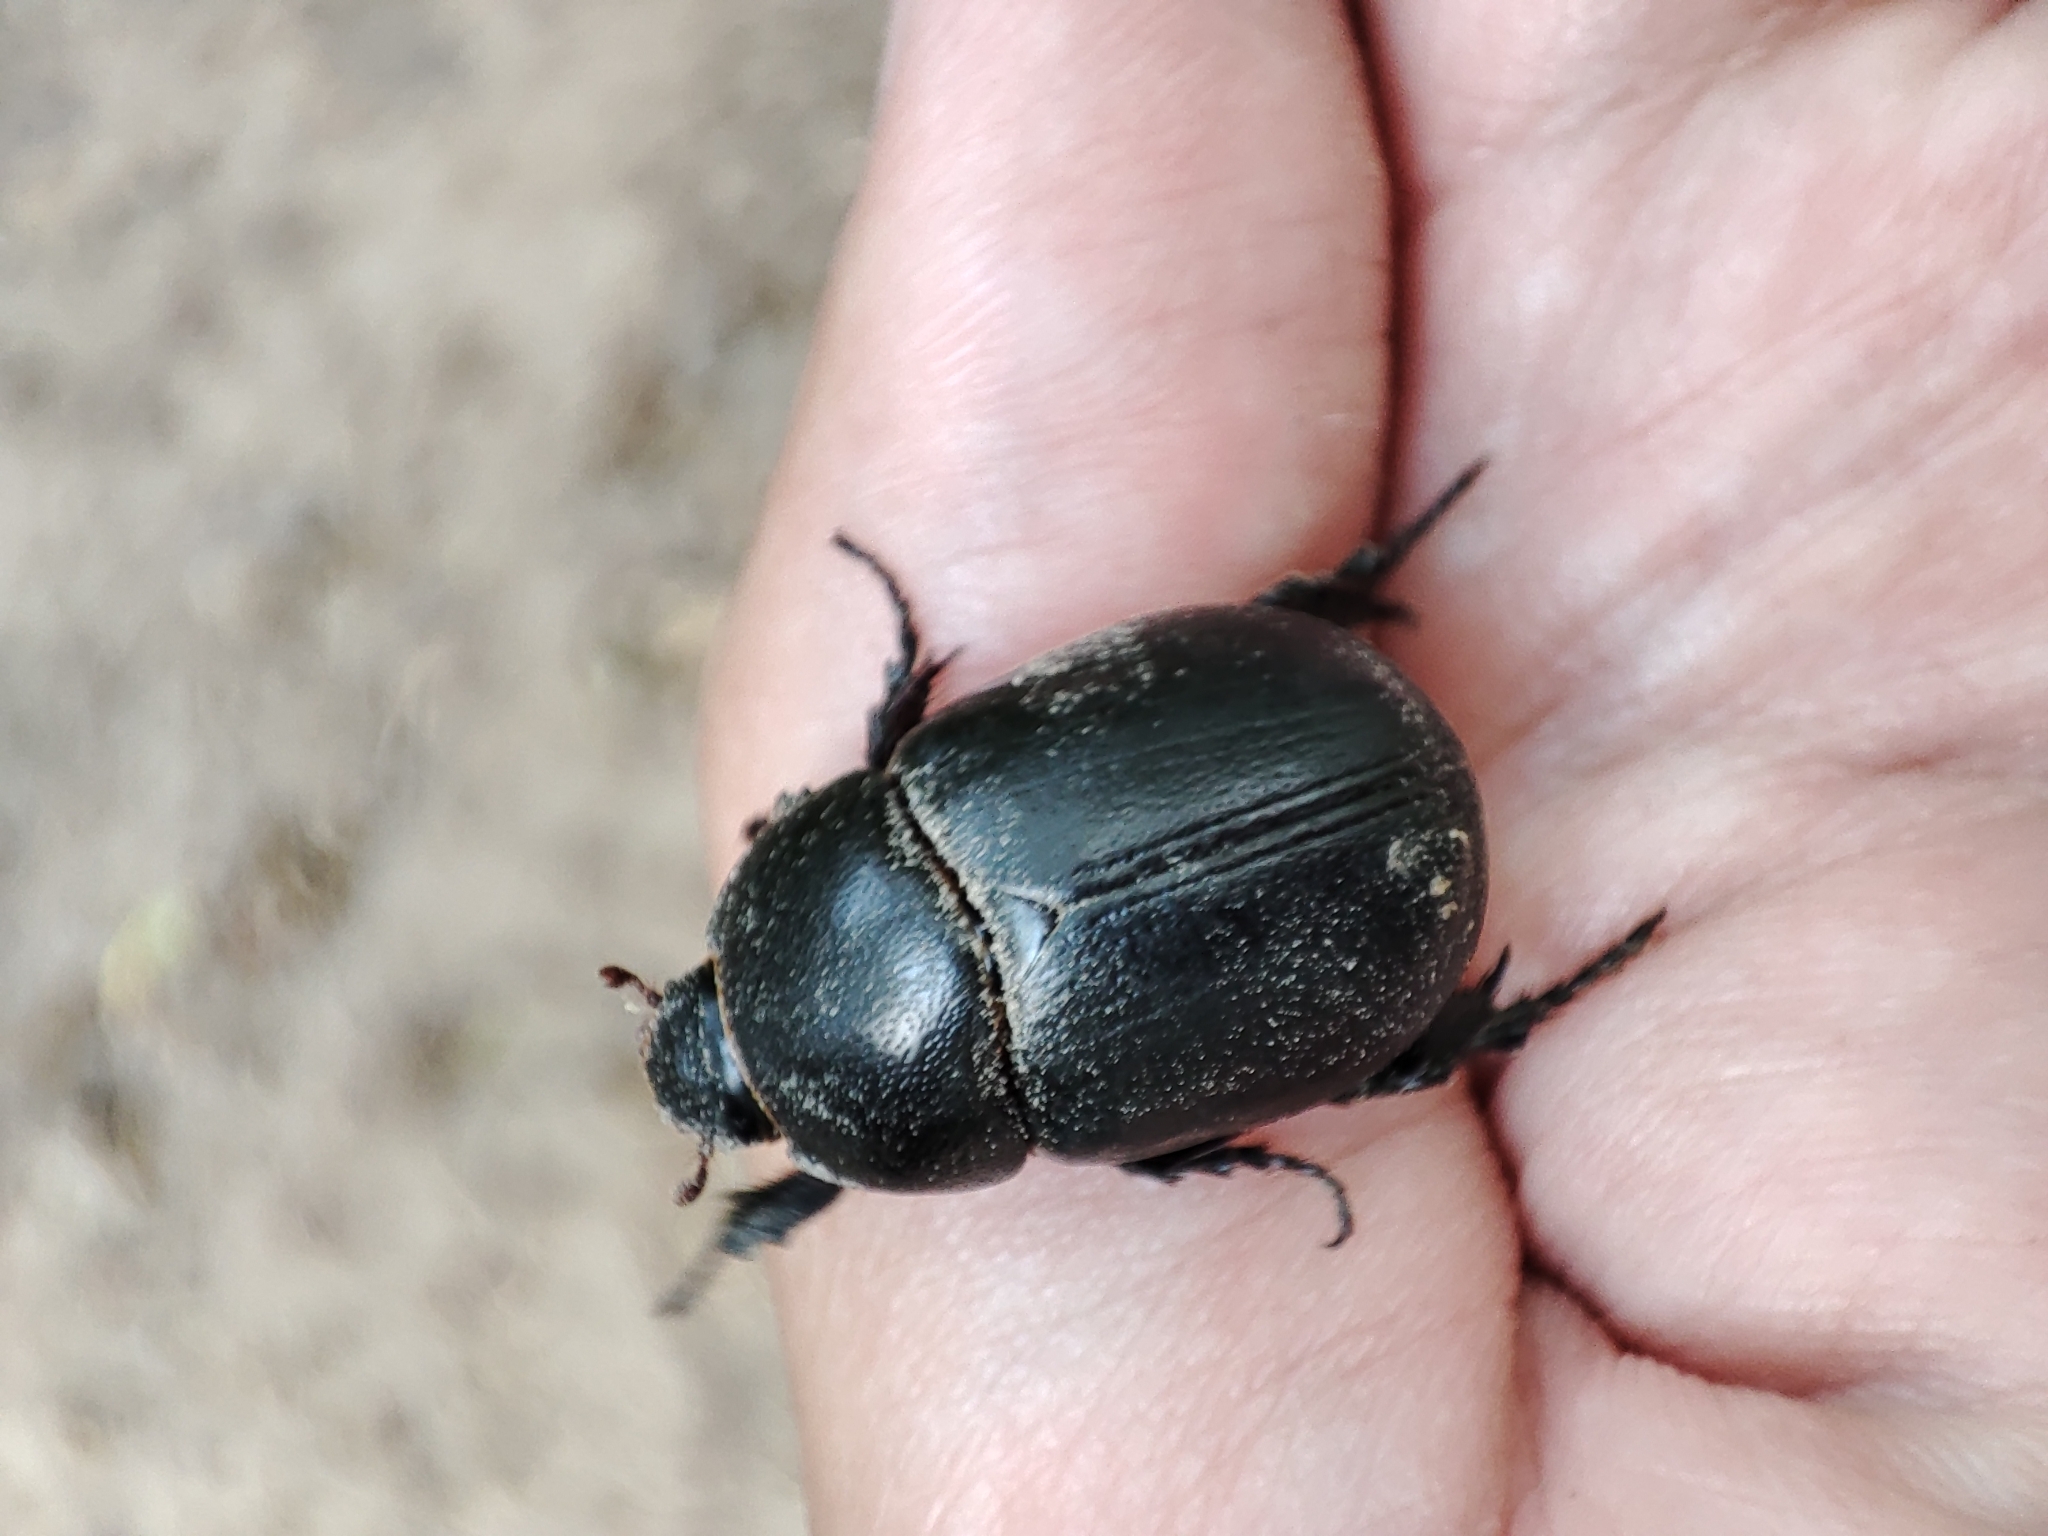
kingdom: Animalia
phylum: Arthropoda
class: Insecta
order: Coleoptera
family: Scarabaeidae
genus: Pentodon
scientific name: Pentodon idiota
